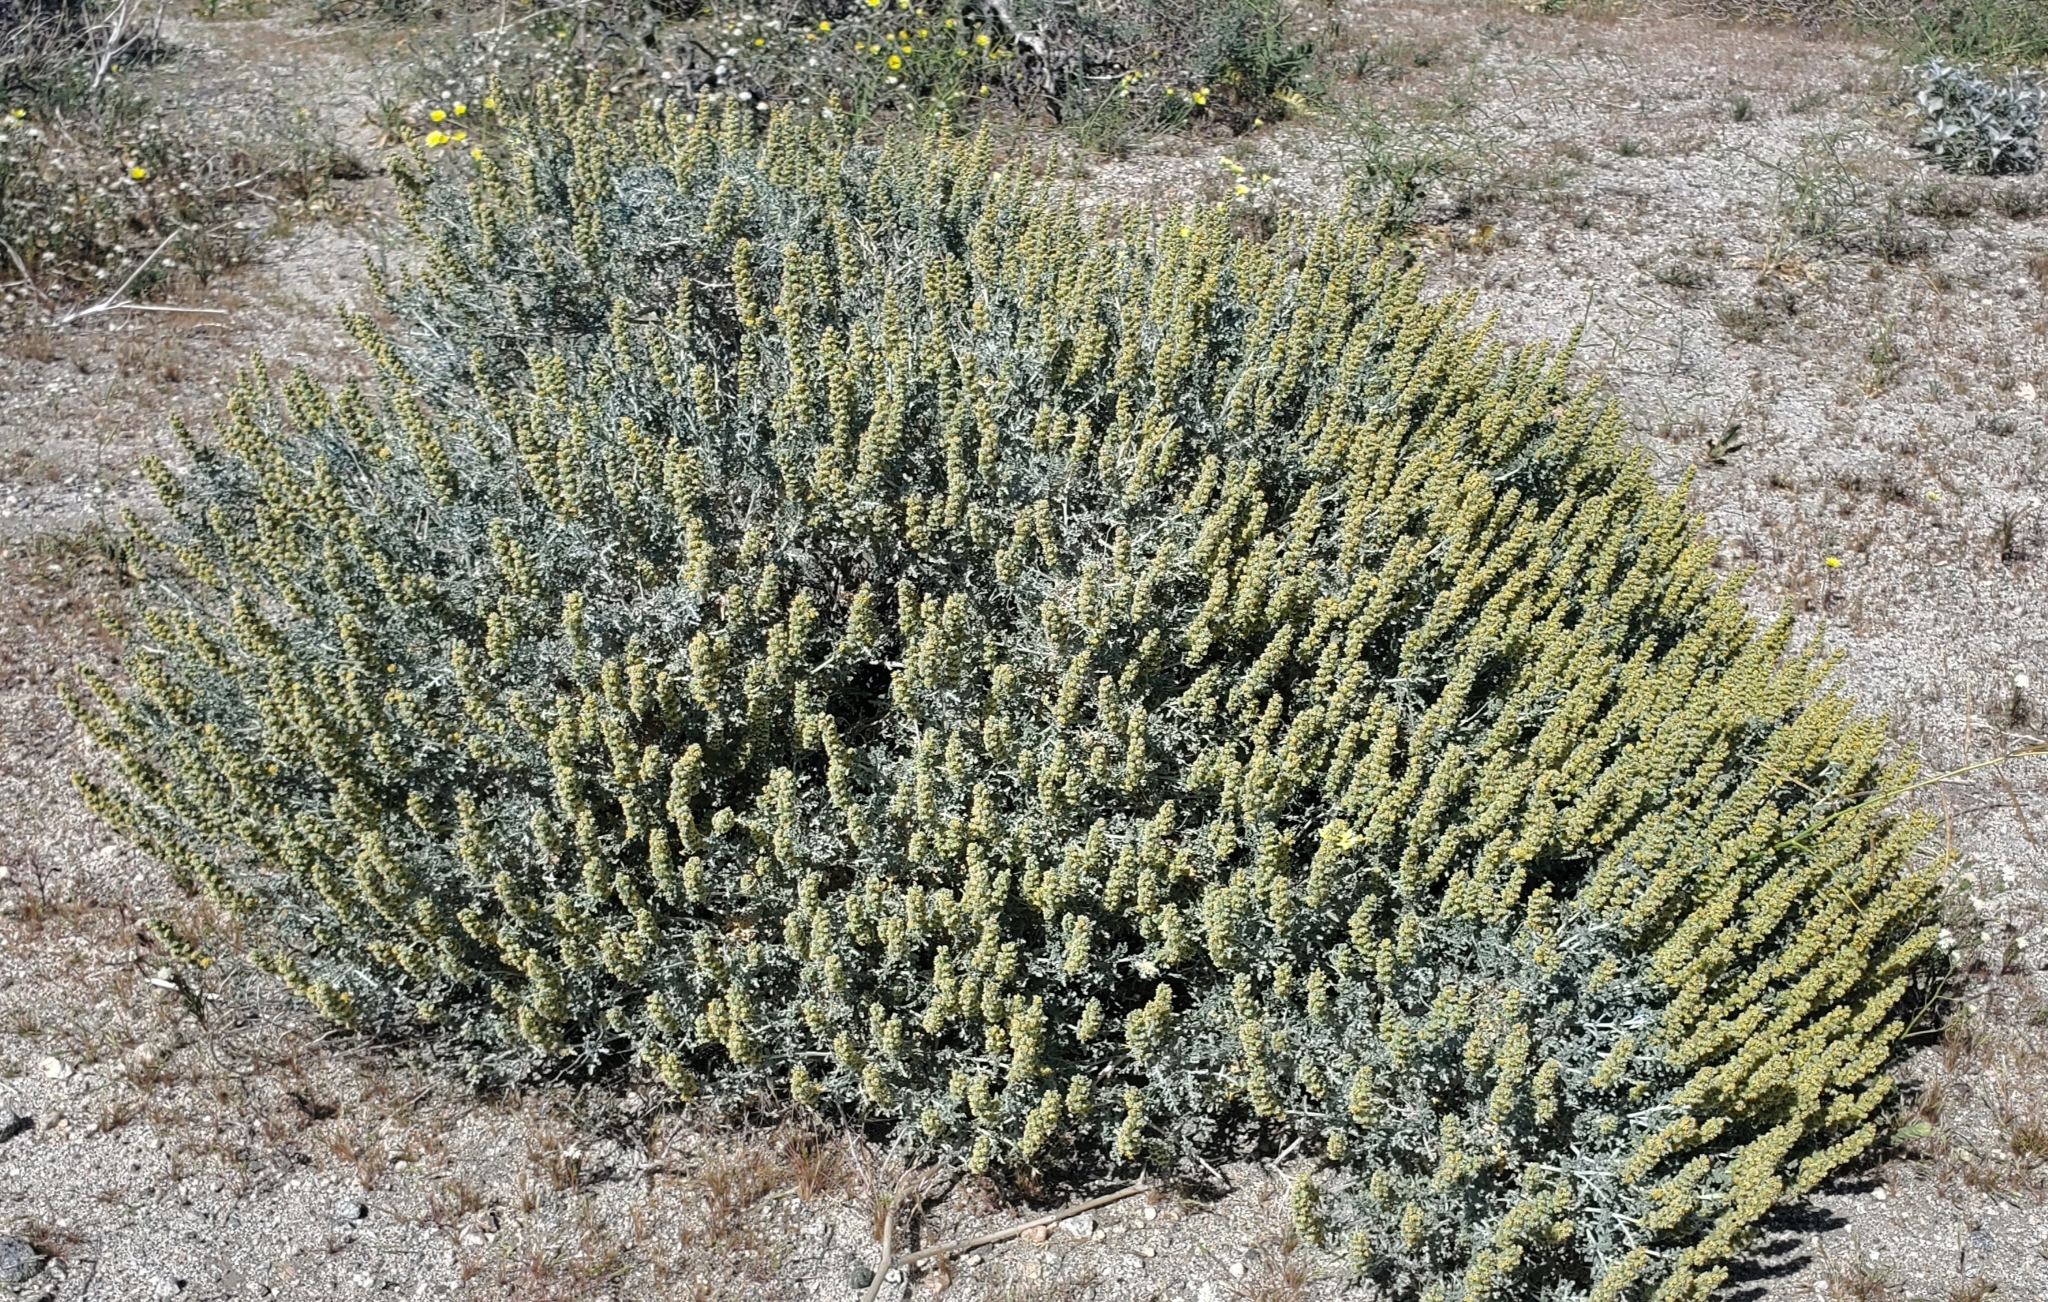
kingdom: Plantae
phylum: Tracheophyta
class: Magnoliopsida
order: Asterales
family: Asteraceae
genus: Ambrosia
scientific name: Ambrosia dumosa
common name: Bur-sage
